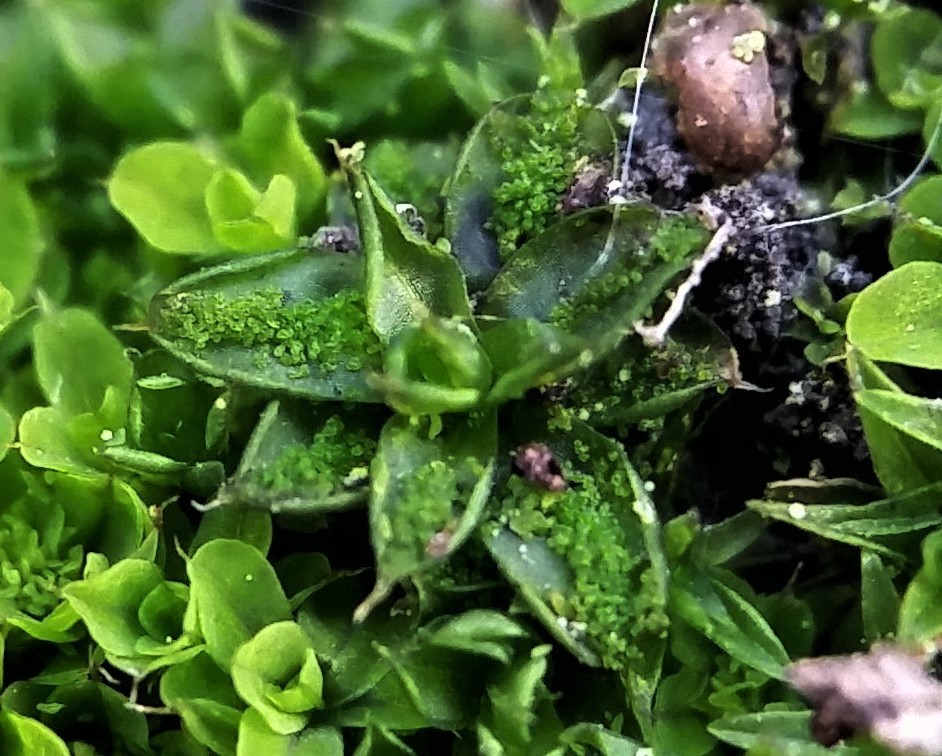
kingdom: Plantae
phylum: Bryophyta
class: Bryopsida
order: Pottiales
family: Pottiaceae
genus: Syntrichia
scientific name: Syntrichia papillosa
